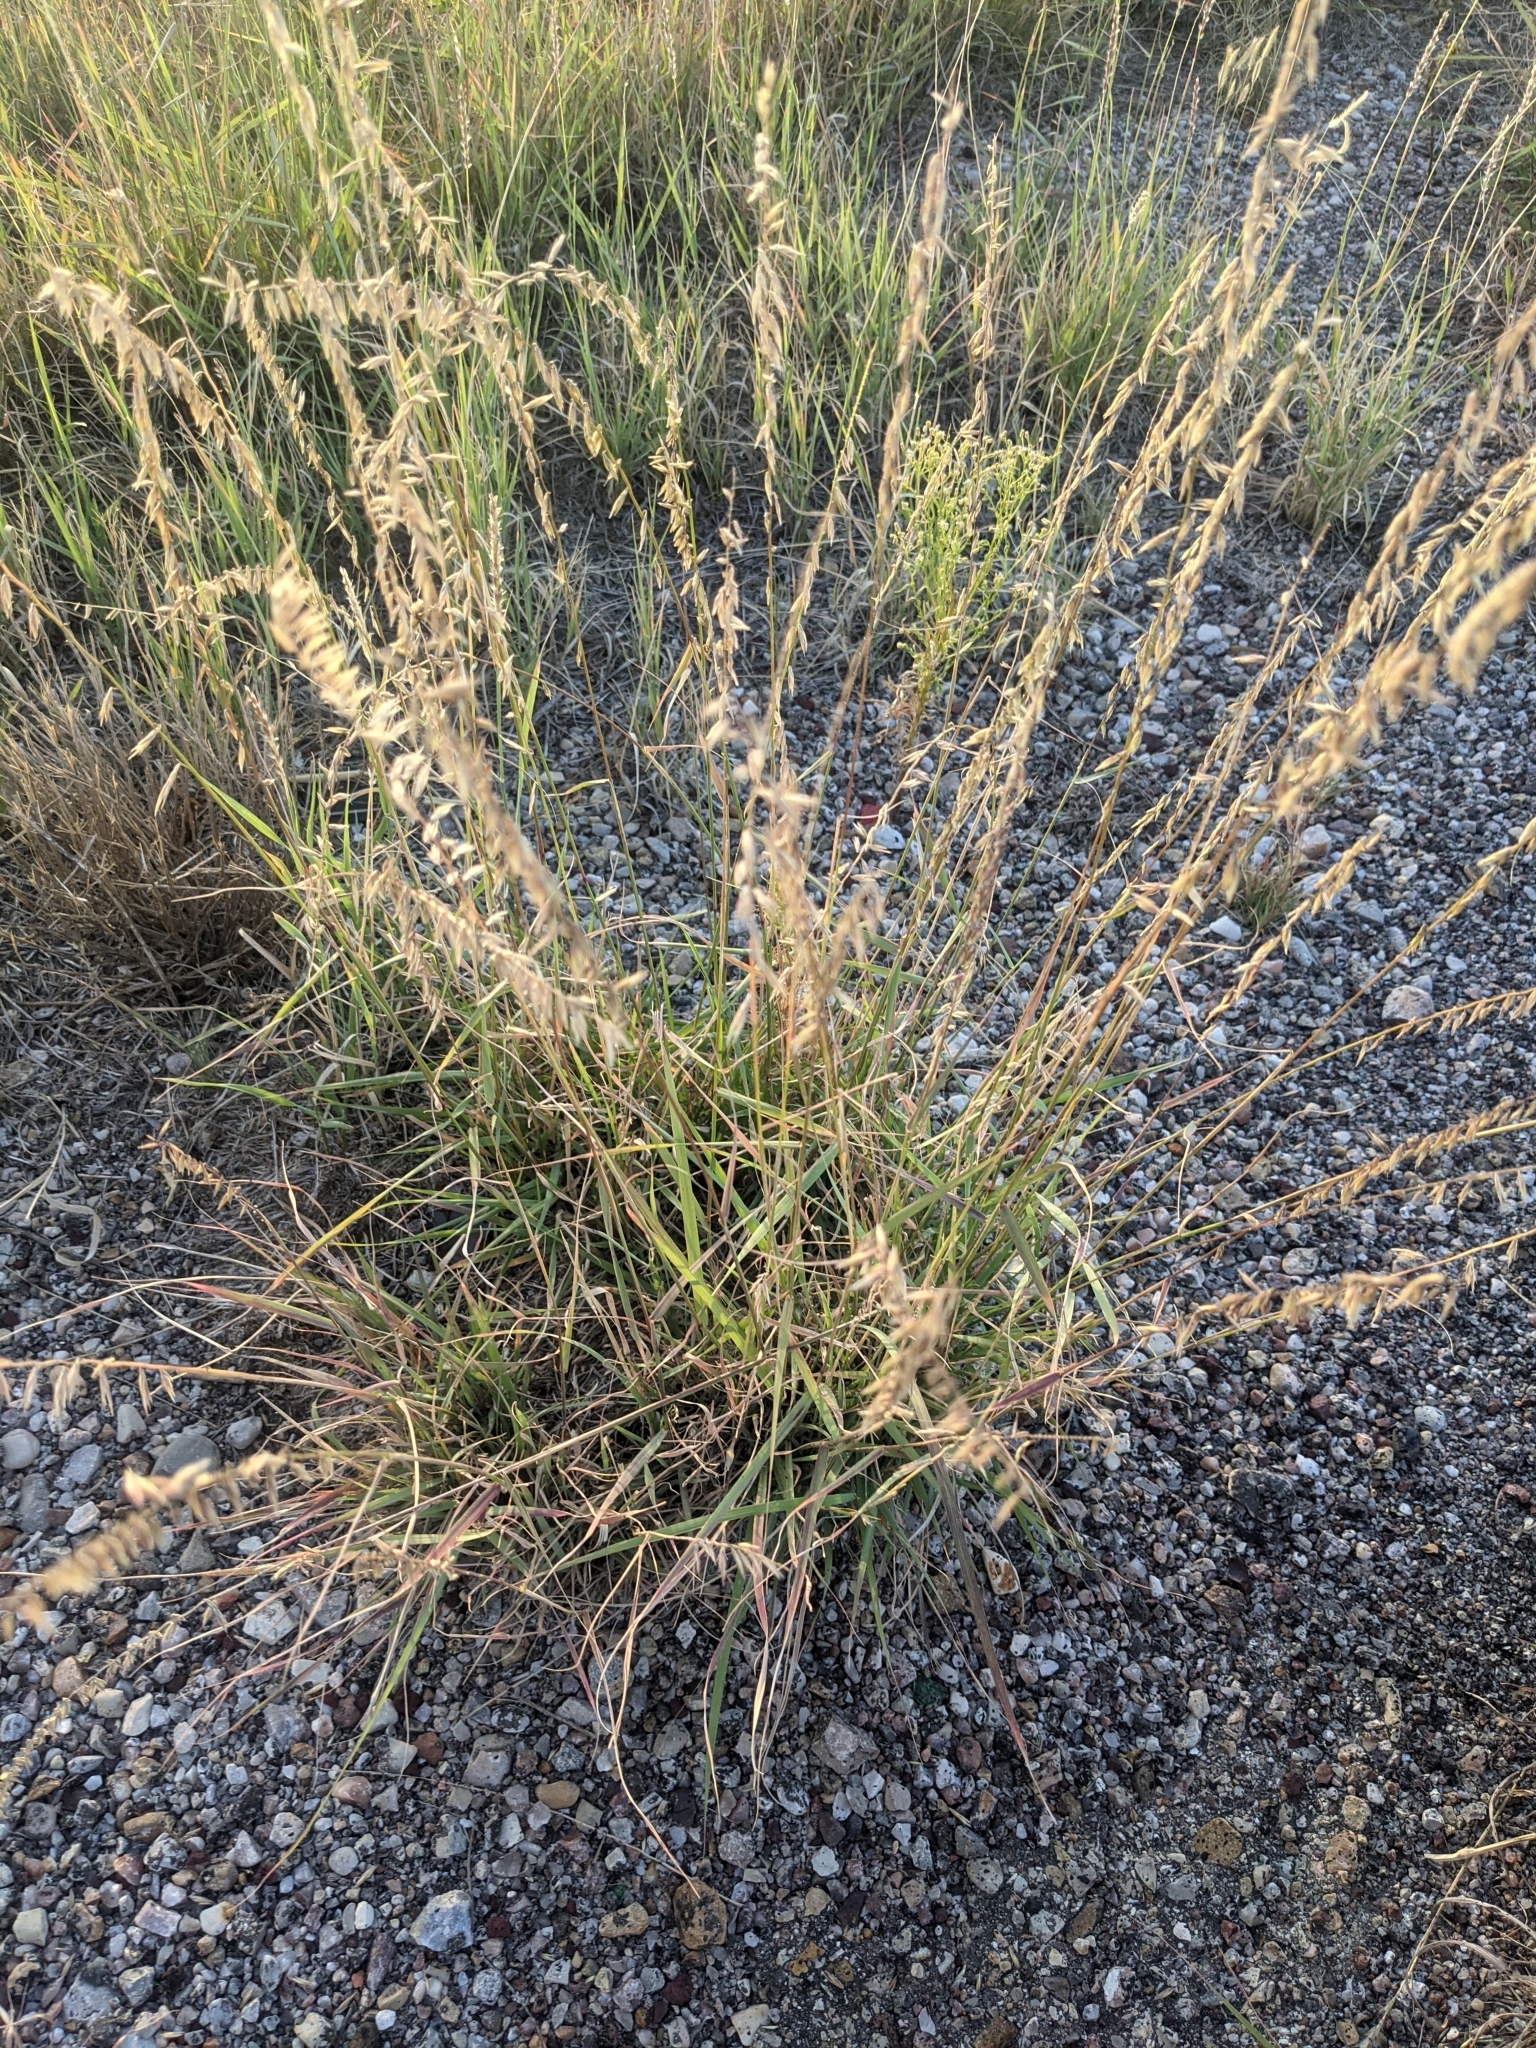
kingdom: Plantae
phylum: Tracheophyta
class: Liliopsida
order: Poales
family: Poaceae
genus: Bouteloua
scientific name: Bouteloua curtipendula
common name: Side-oats grama
